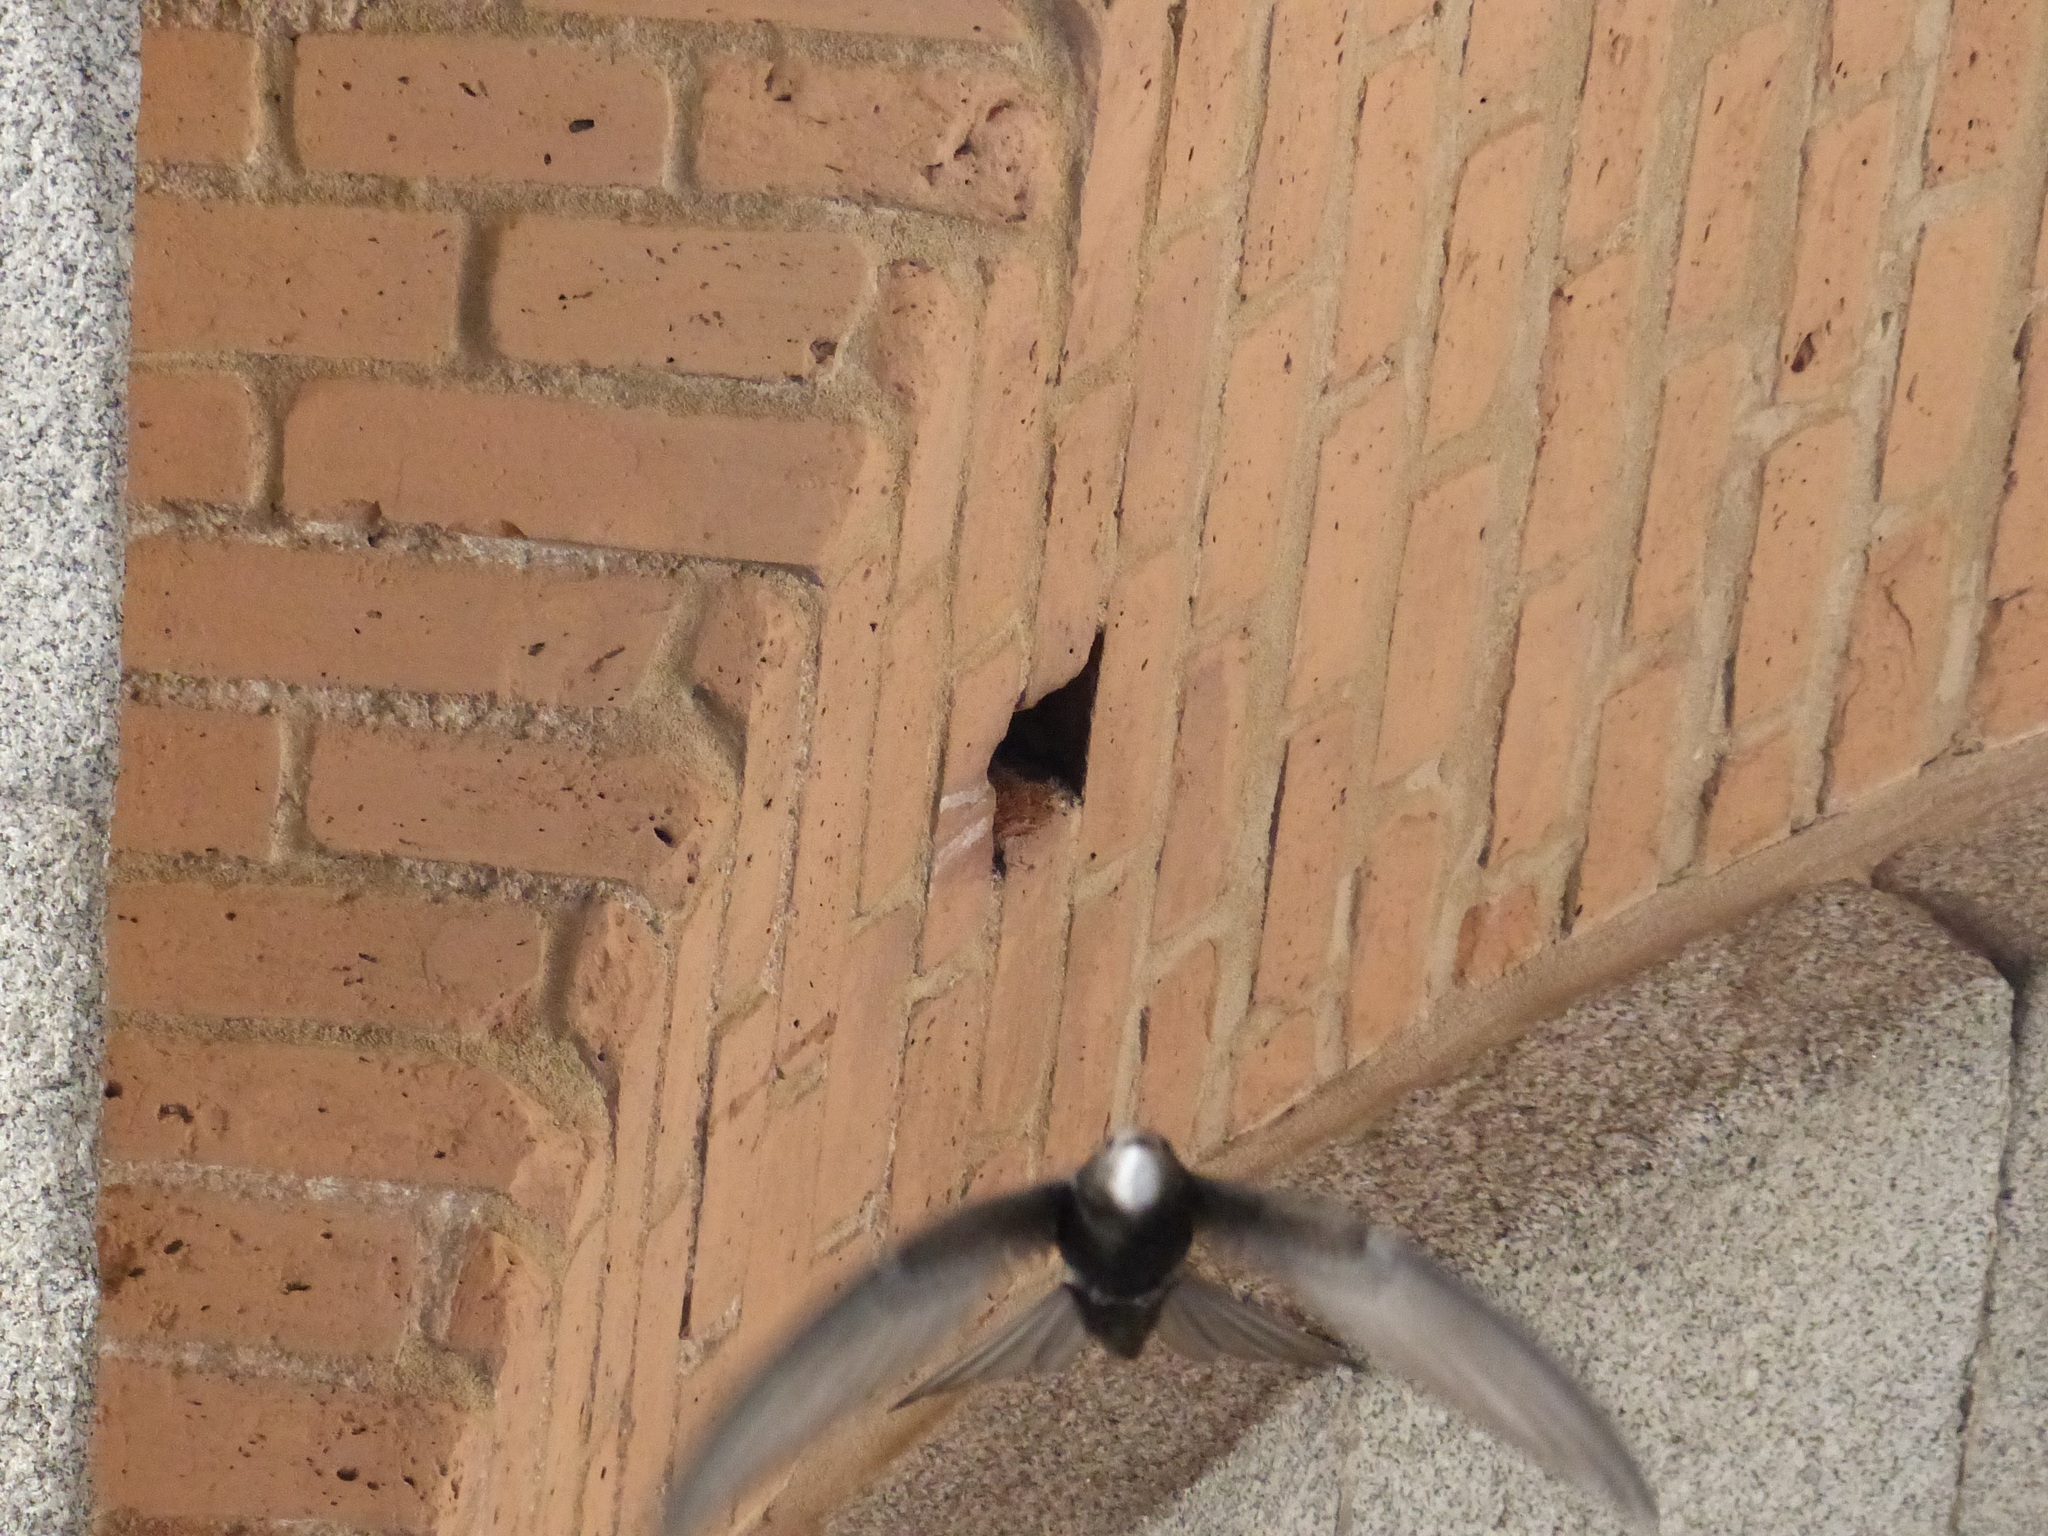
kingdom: Animalia
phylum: Chordata
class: Aves
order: Apodiformes
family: Apodidae
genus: Apus
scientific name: Apus apus
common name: Common swift
